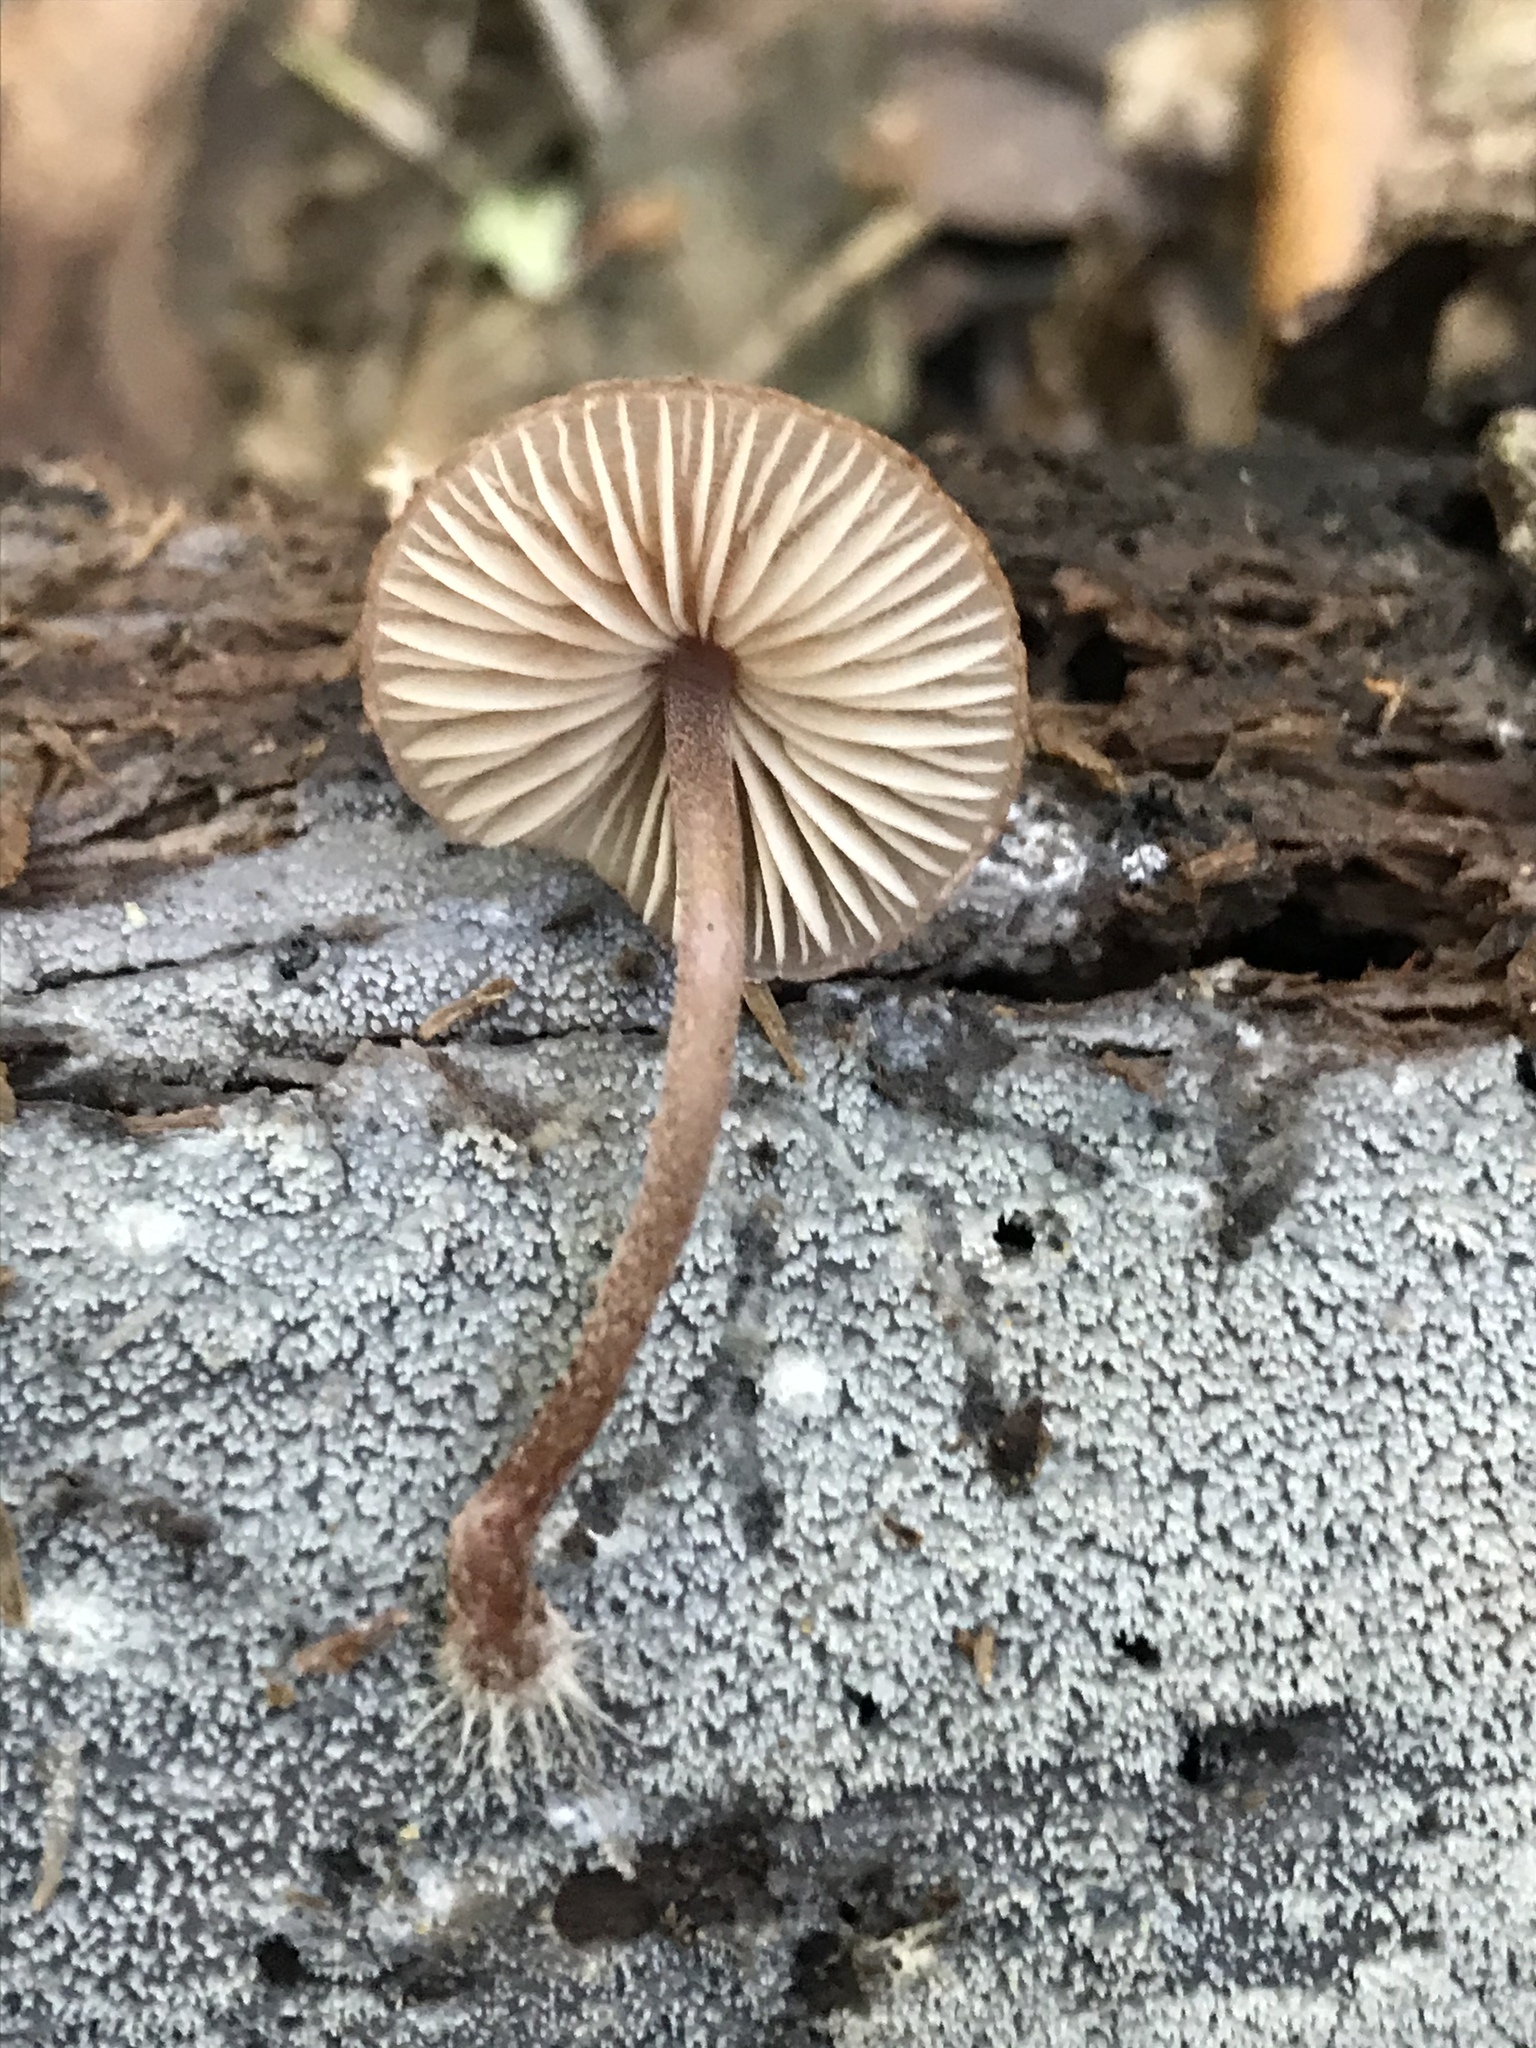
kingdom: Fungi
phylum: Basidiomycota
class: Agaricomycetes
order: Agaricales
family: Mycenaceae
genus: Mycena
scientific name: Mycena haematopus
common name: Burgundydrop bonnet
